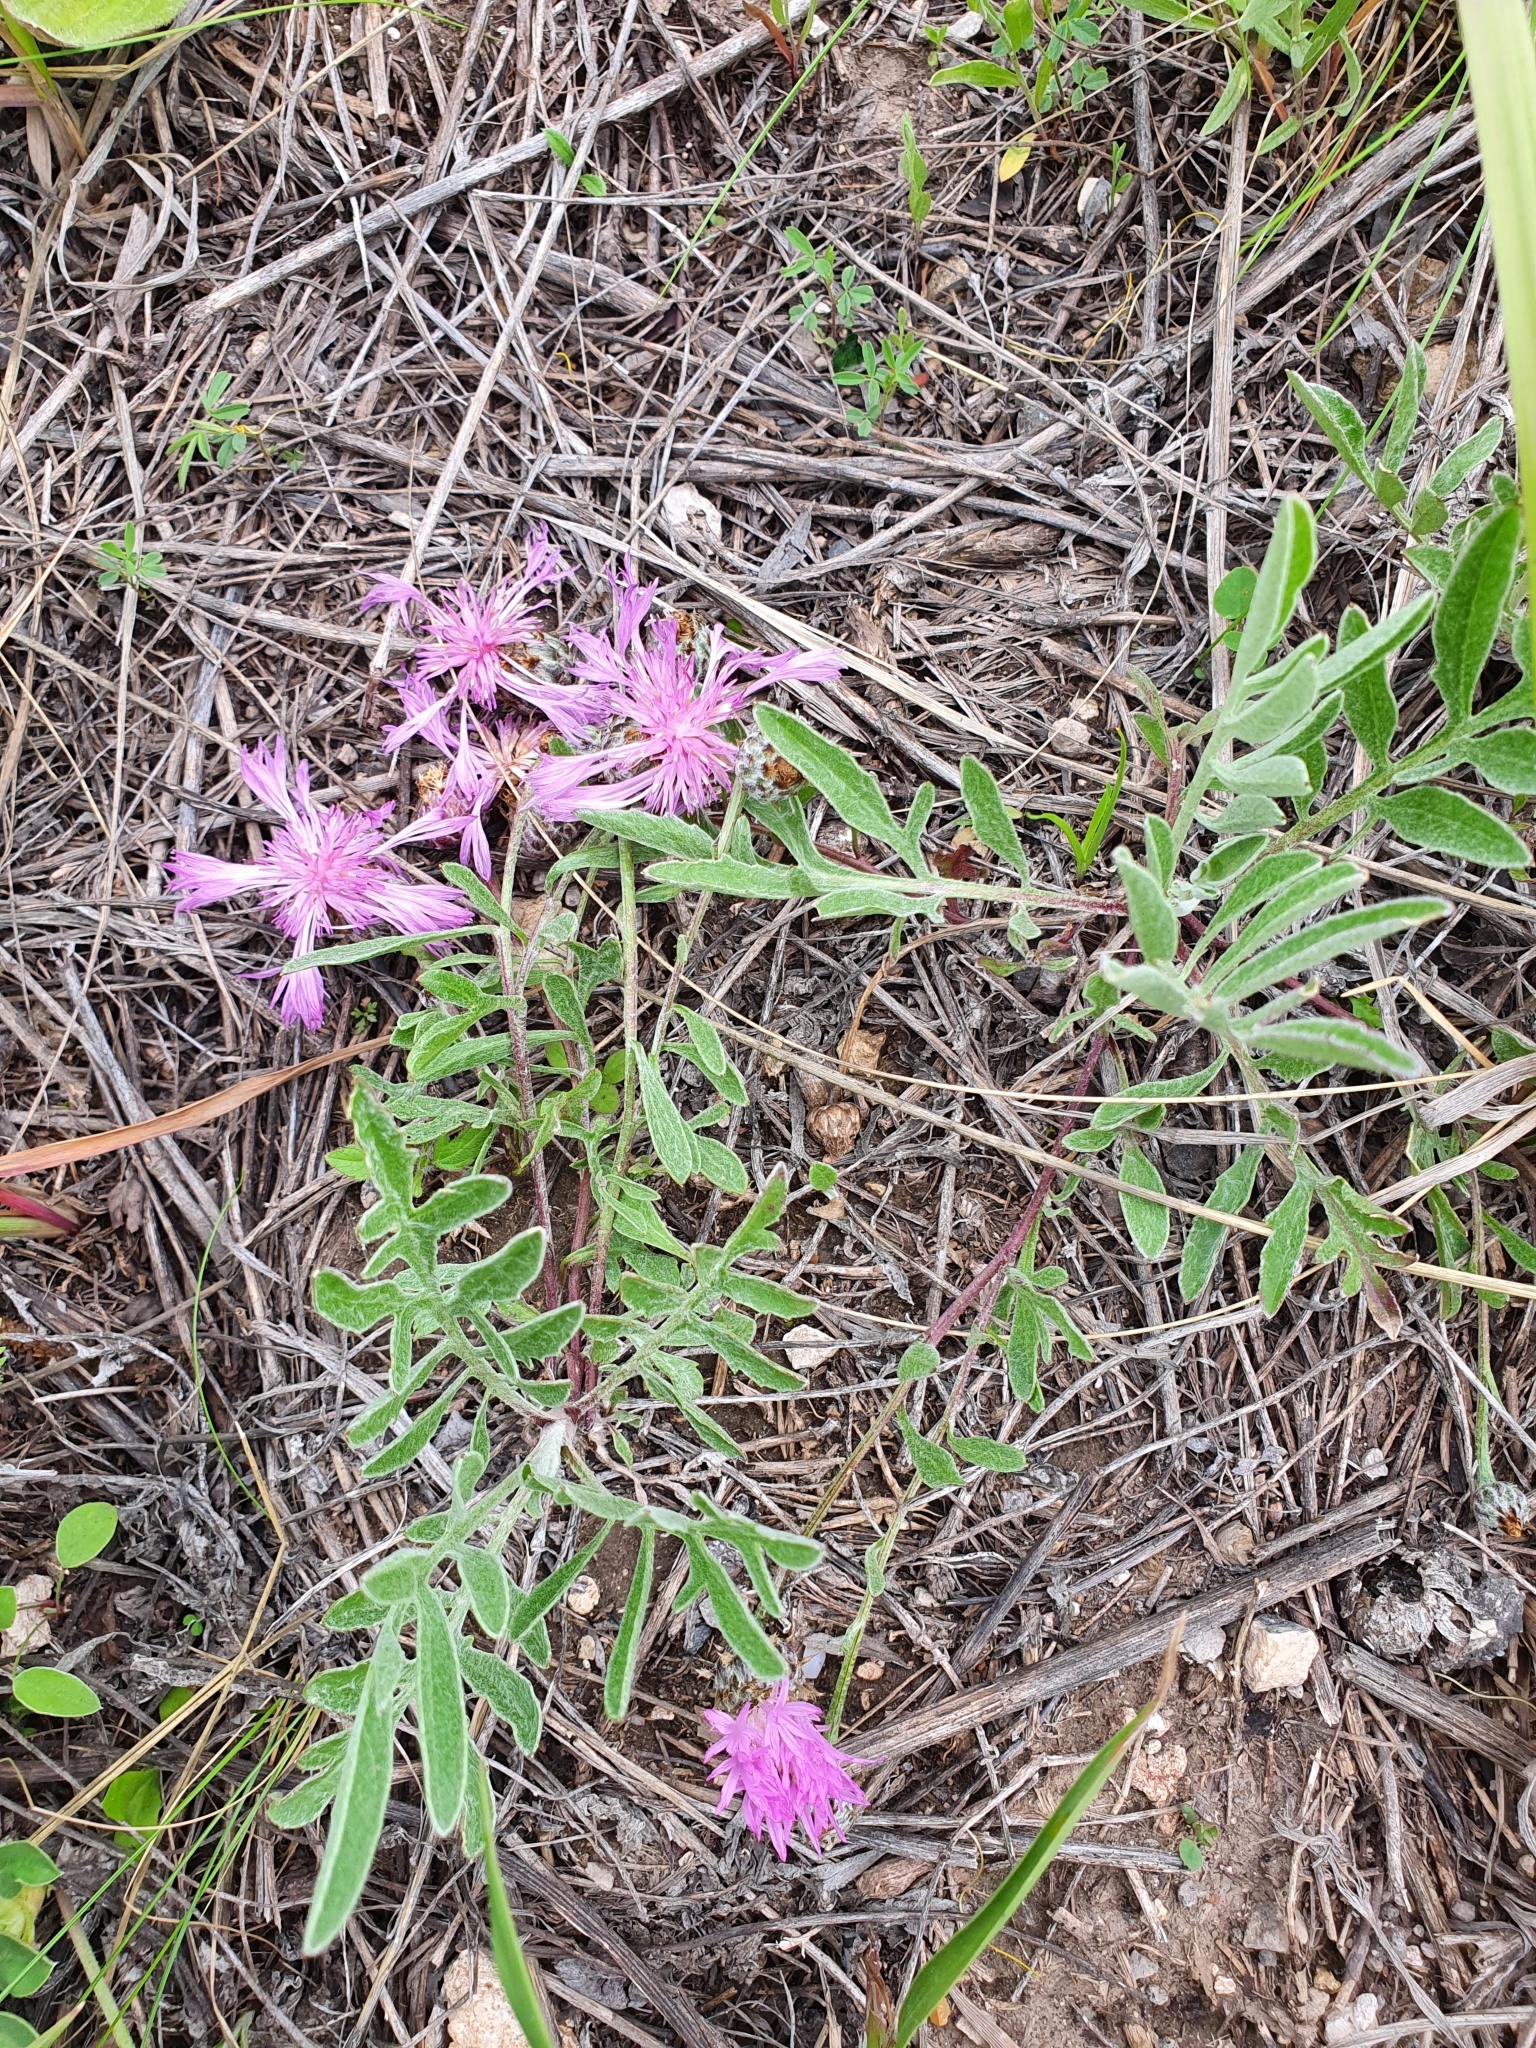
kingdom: Plantae
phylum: Tracheophyta
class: Magnoliopsida
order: Asterales
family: Asteraceae
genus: Psephellus
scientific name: Psephellus sumensis
